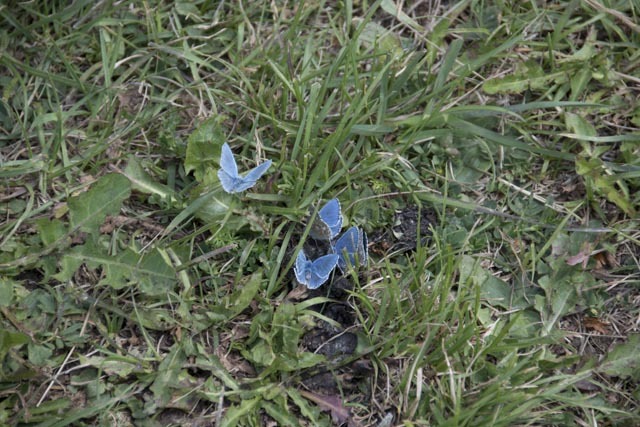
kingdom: Animalia
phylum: Arthropoda
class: Insecta
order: Lepidoptera
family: Lycaenidae
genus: Lysandra
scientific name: Lysandra bellargus
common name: Adonis blue
